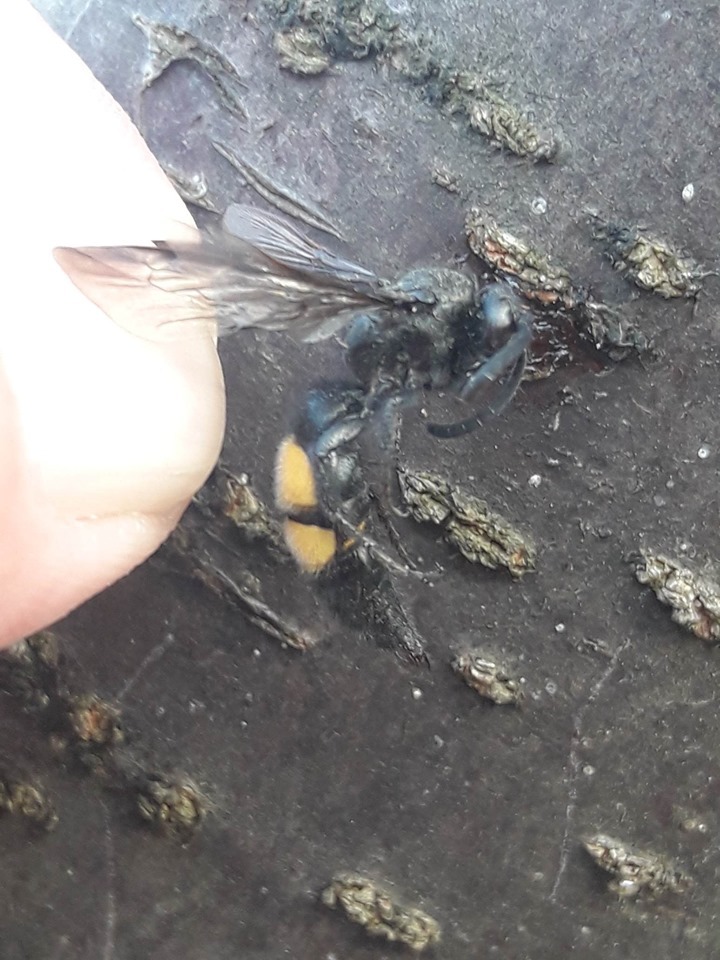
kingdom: Animalia
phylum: Arthropoda
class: Insecta
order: Hymenoptera
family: Scoliidae
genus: Scolia
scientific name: Scolia hirta
